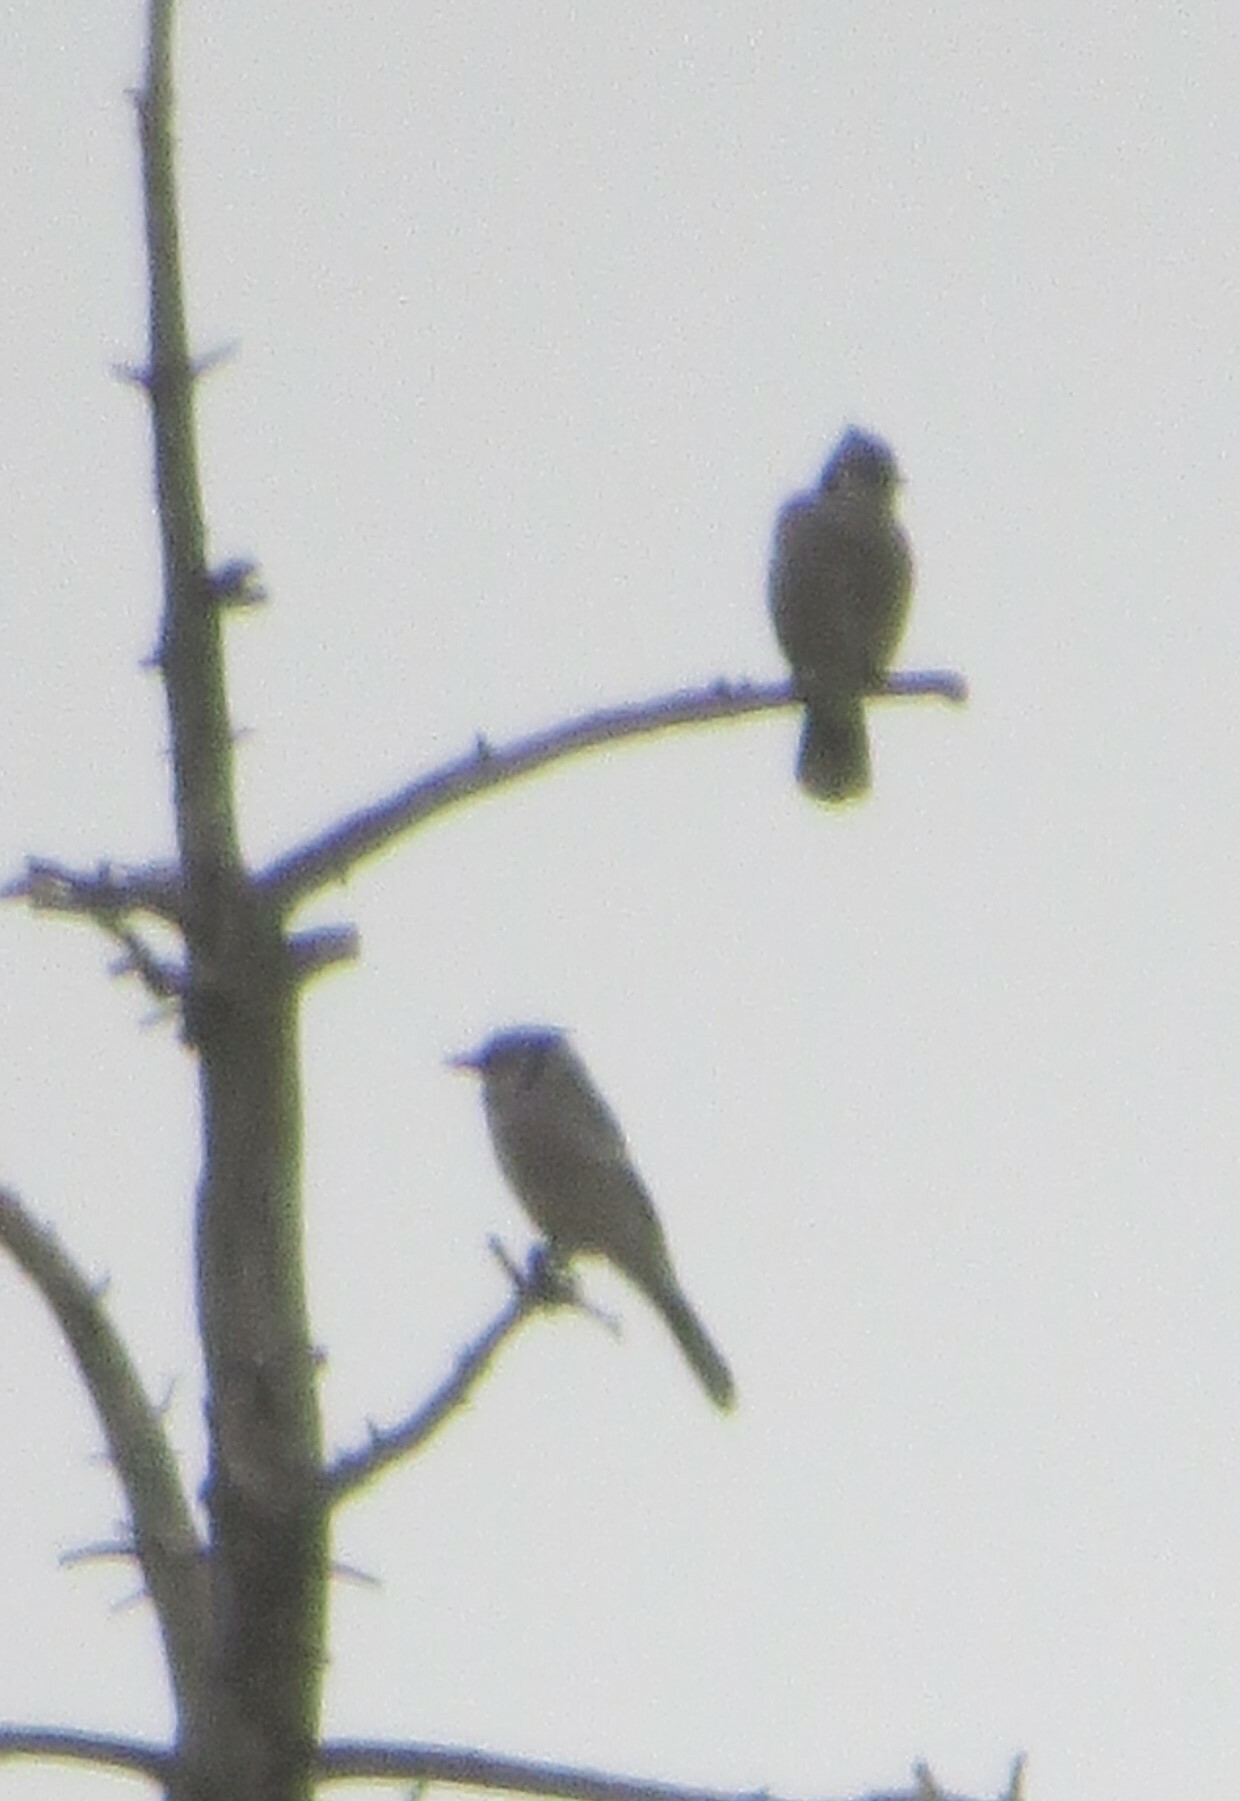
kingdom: Animalia
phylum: Chordata
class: Aves
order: Passeriformes
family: Corvidae
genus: Cyanocitta
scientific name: Cyanocitta cristata
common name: Blue jay
